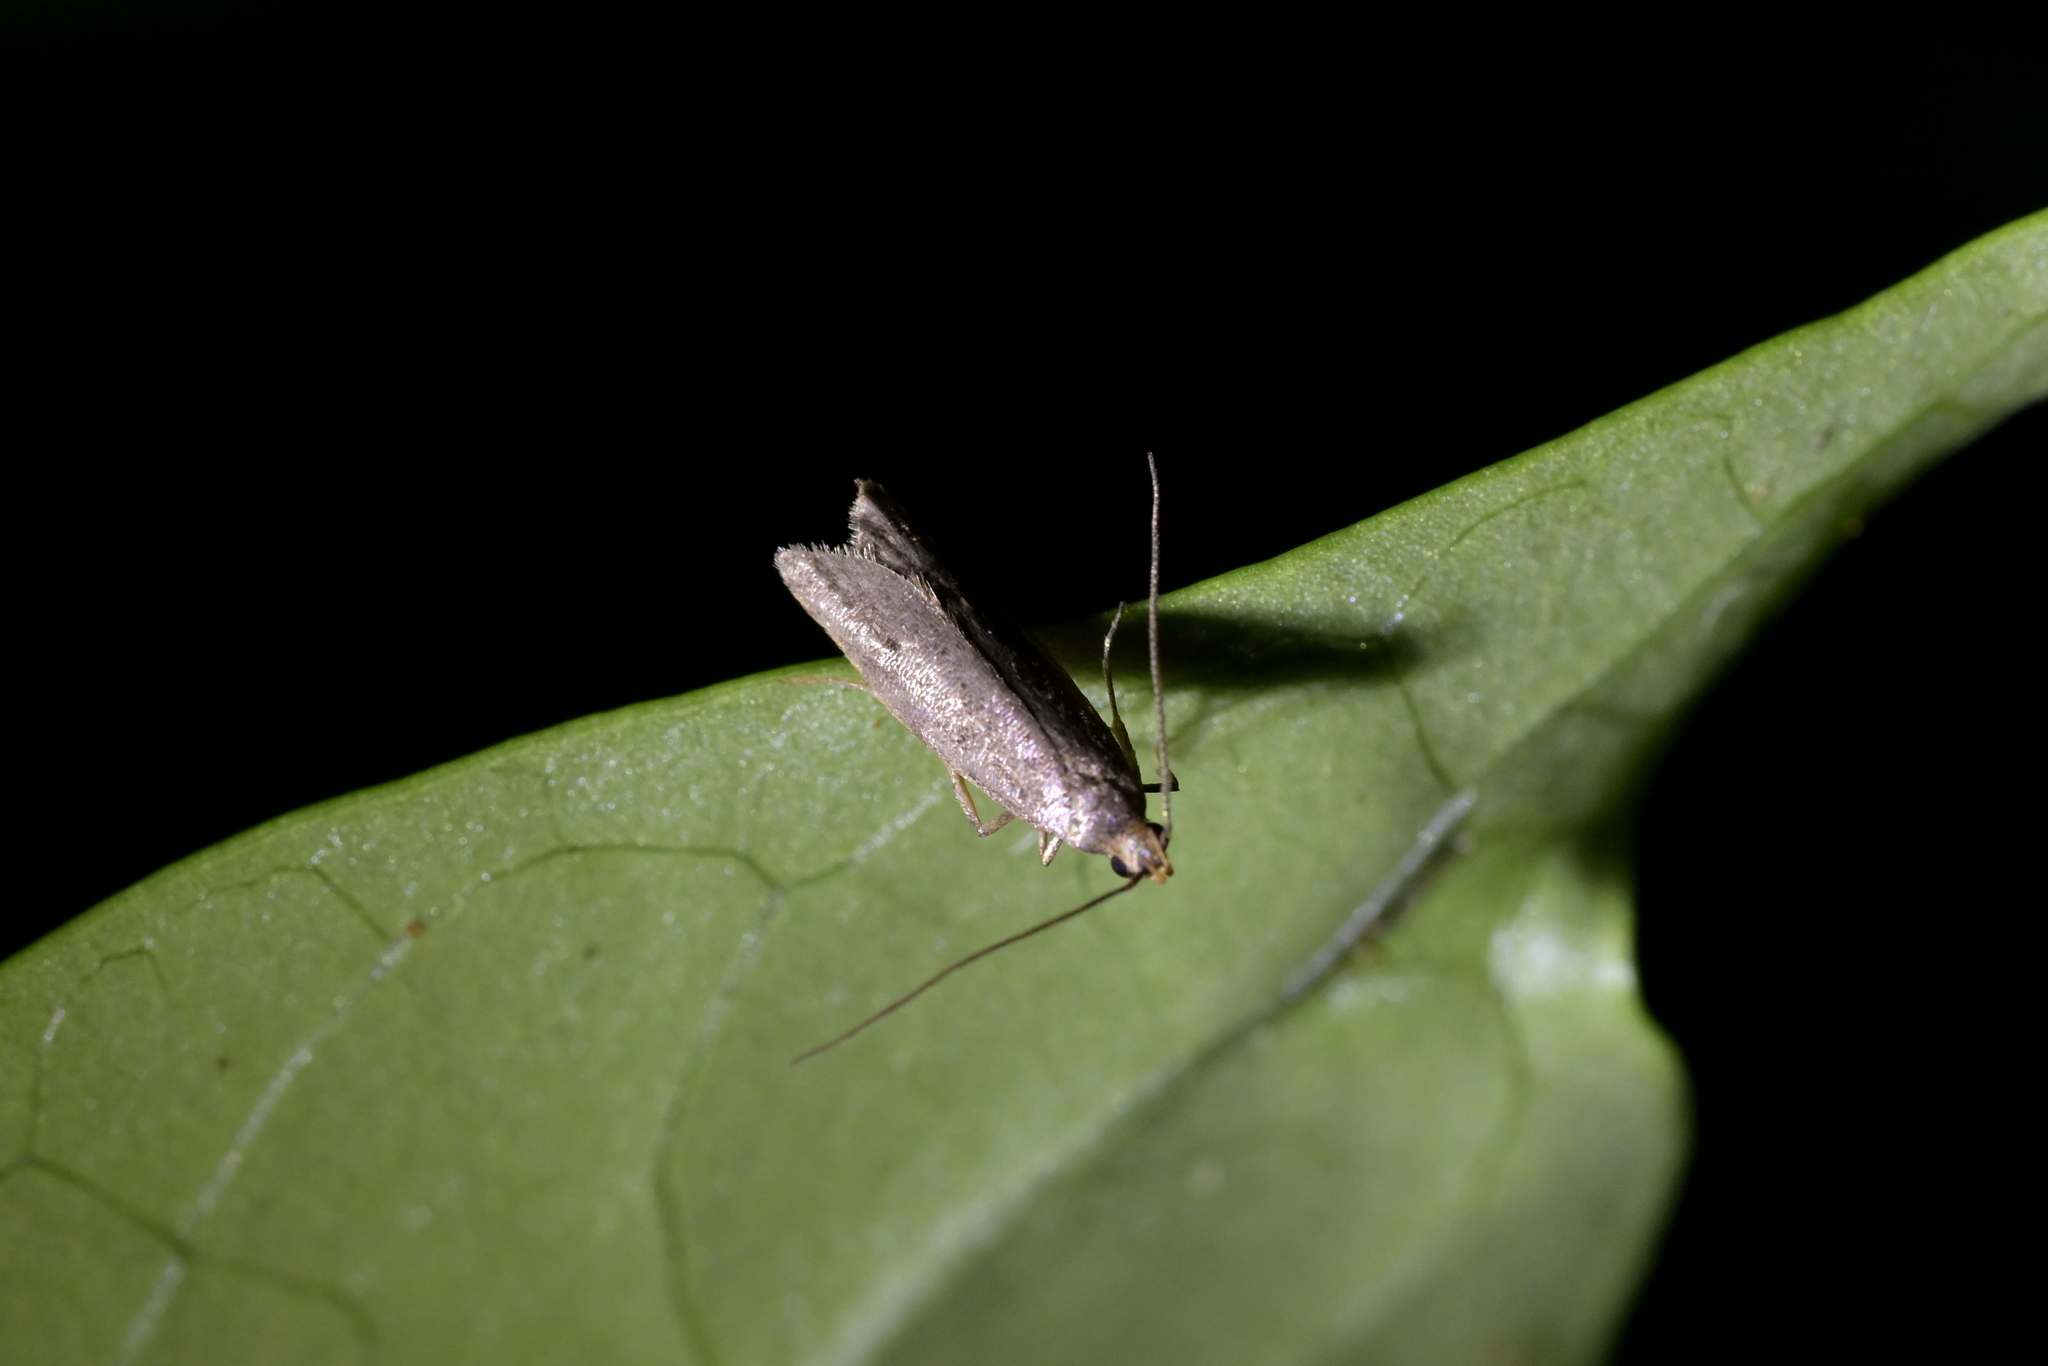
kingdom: Animalia
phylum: Arthropoda
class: Insecta
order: Lepidoptera
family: Oecophoridae
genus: Gymnobathra
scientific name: Gymnobathra tholodella
